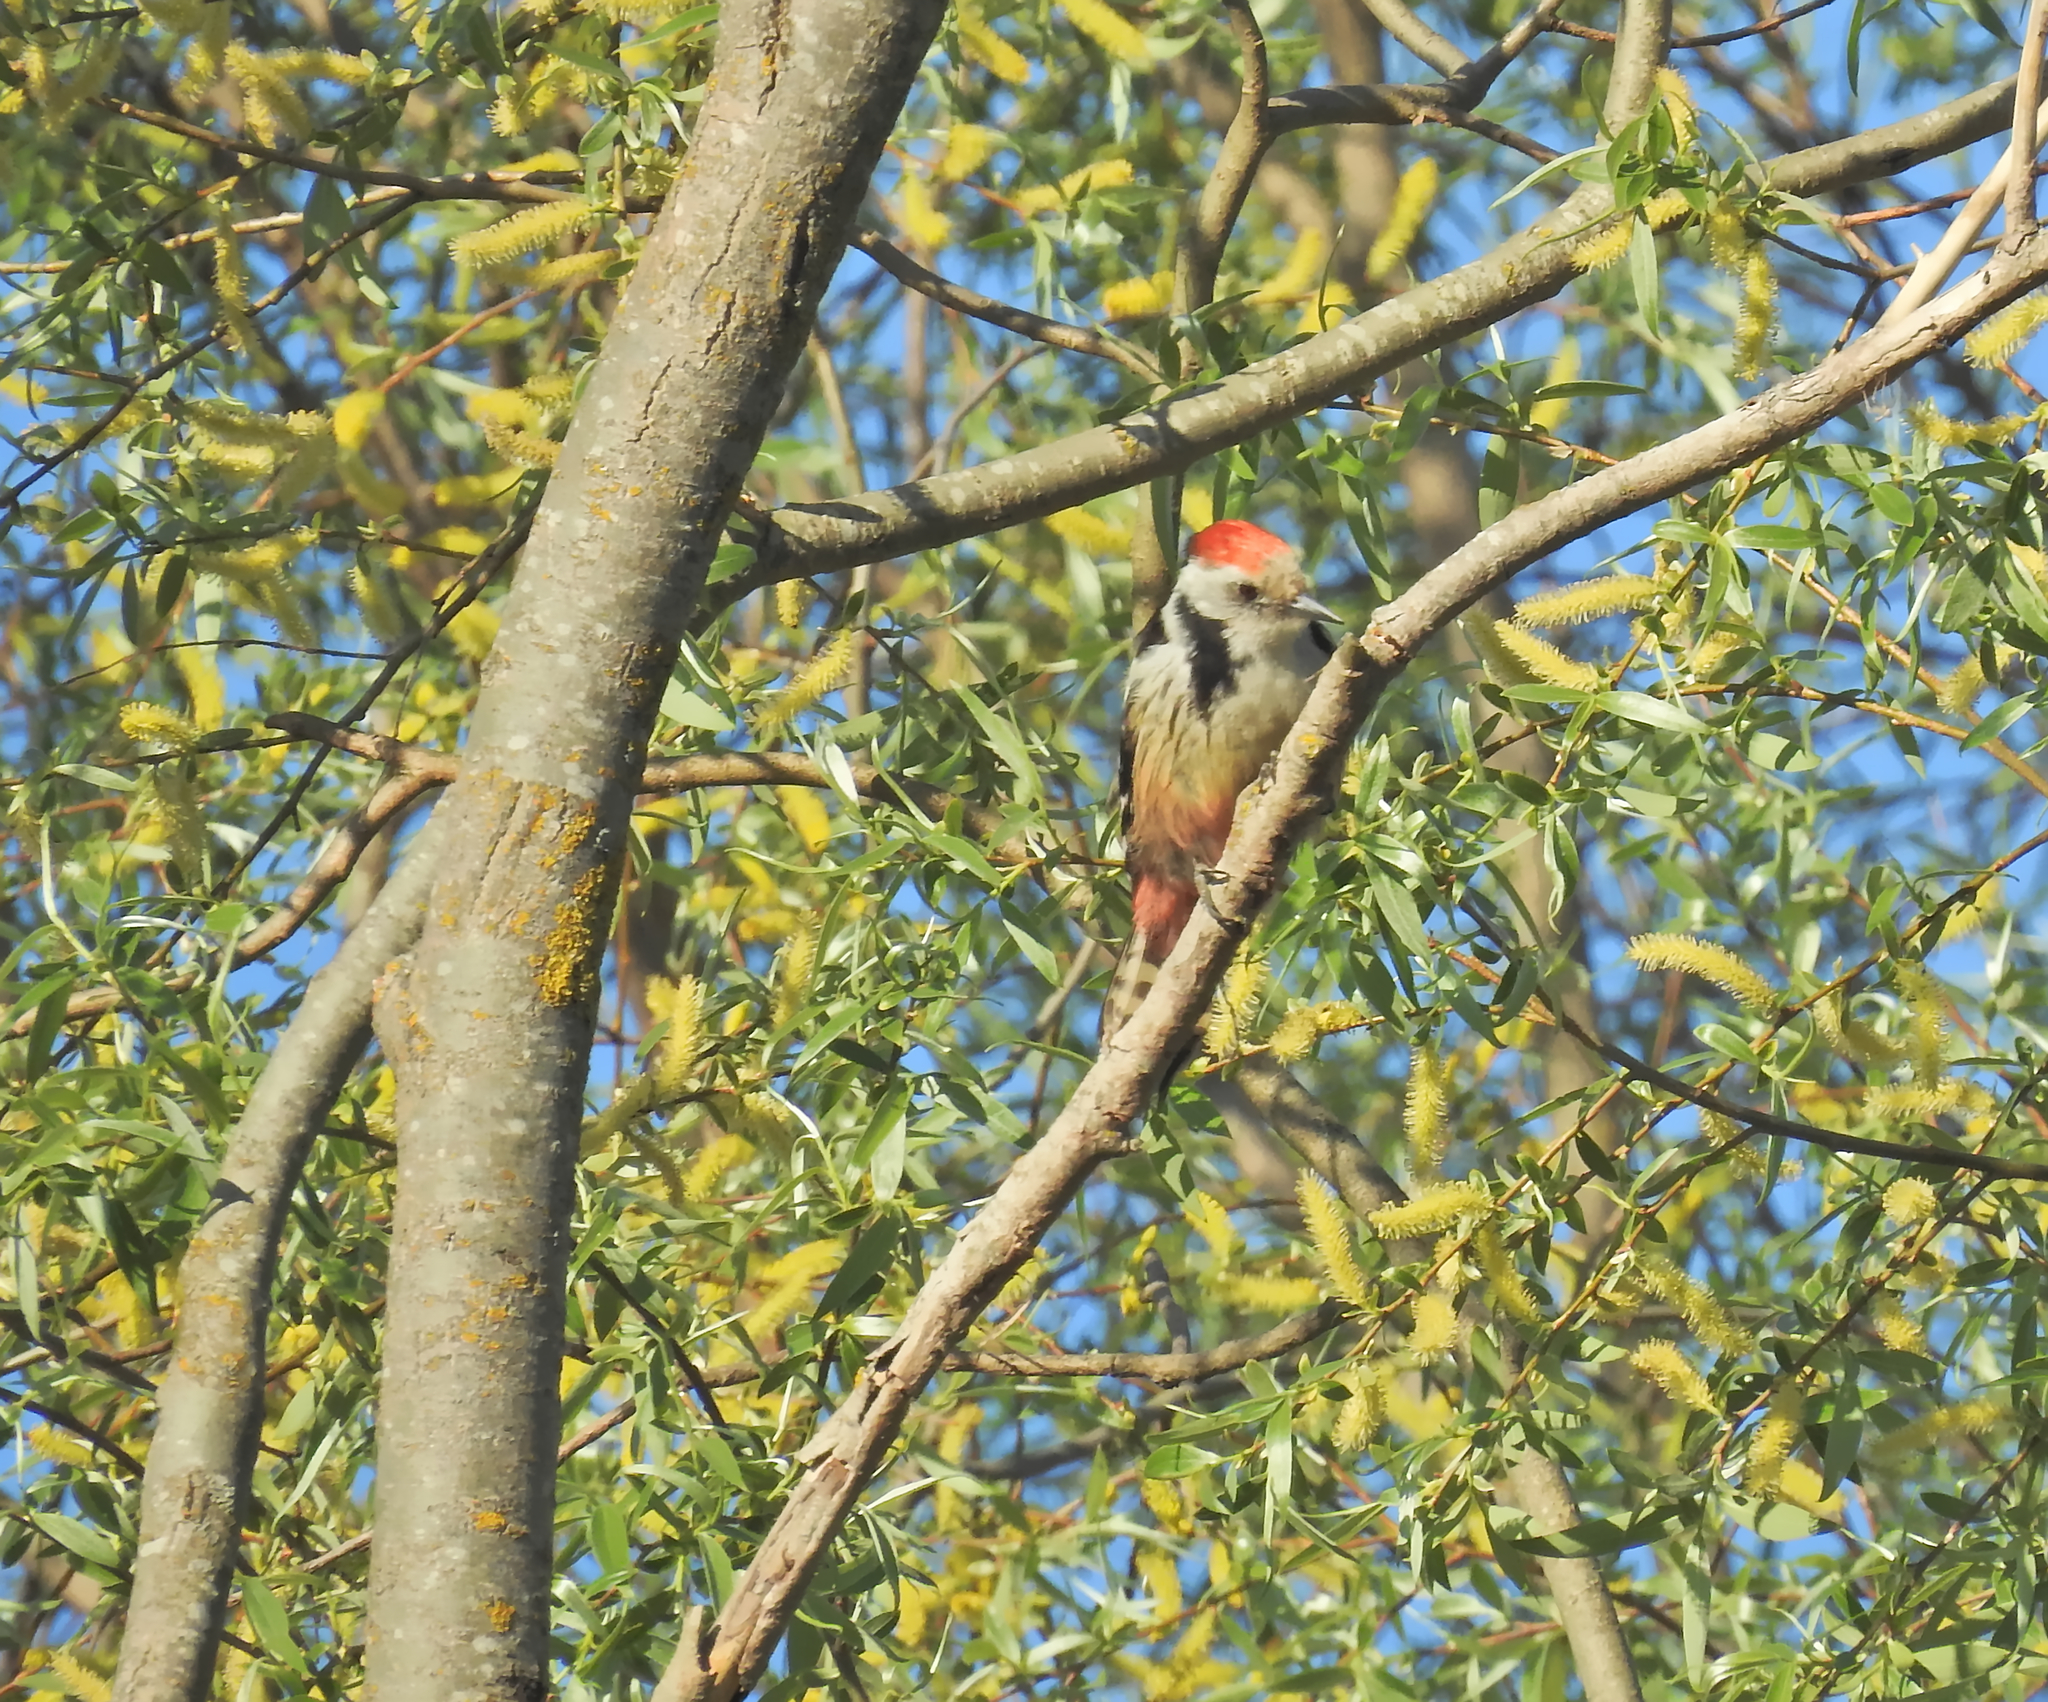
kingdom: Animalia
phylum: Chordata
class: Aves
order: Piciformes
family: Picidae
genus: Dendrocoptes
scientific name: Dendrocoptes medius
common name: Middle spotted woodpecker
